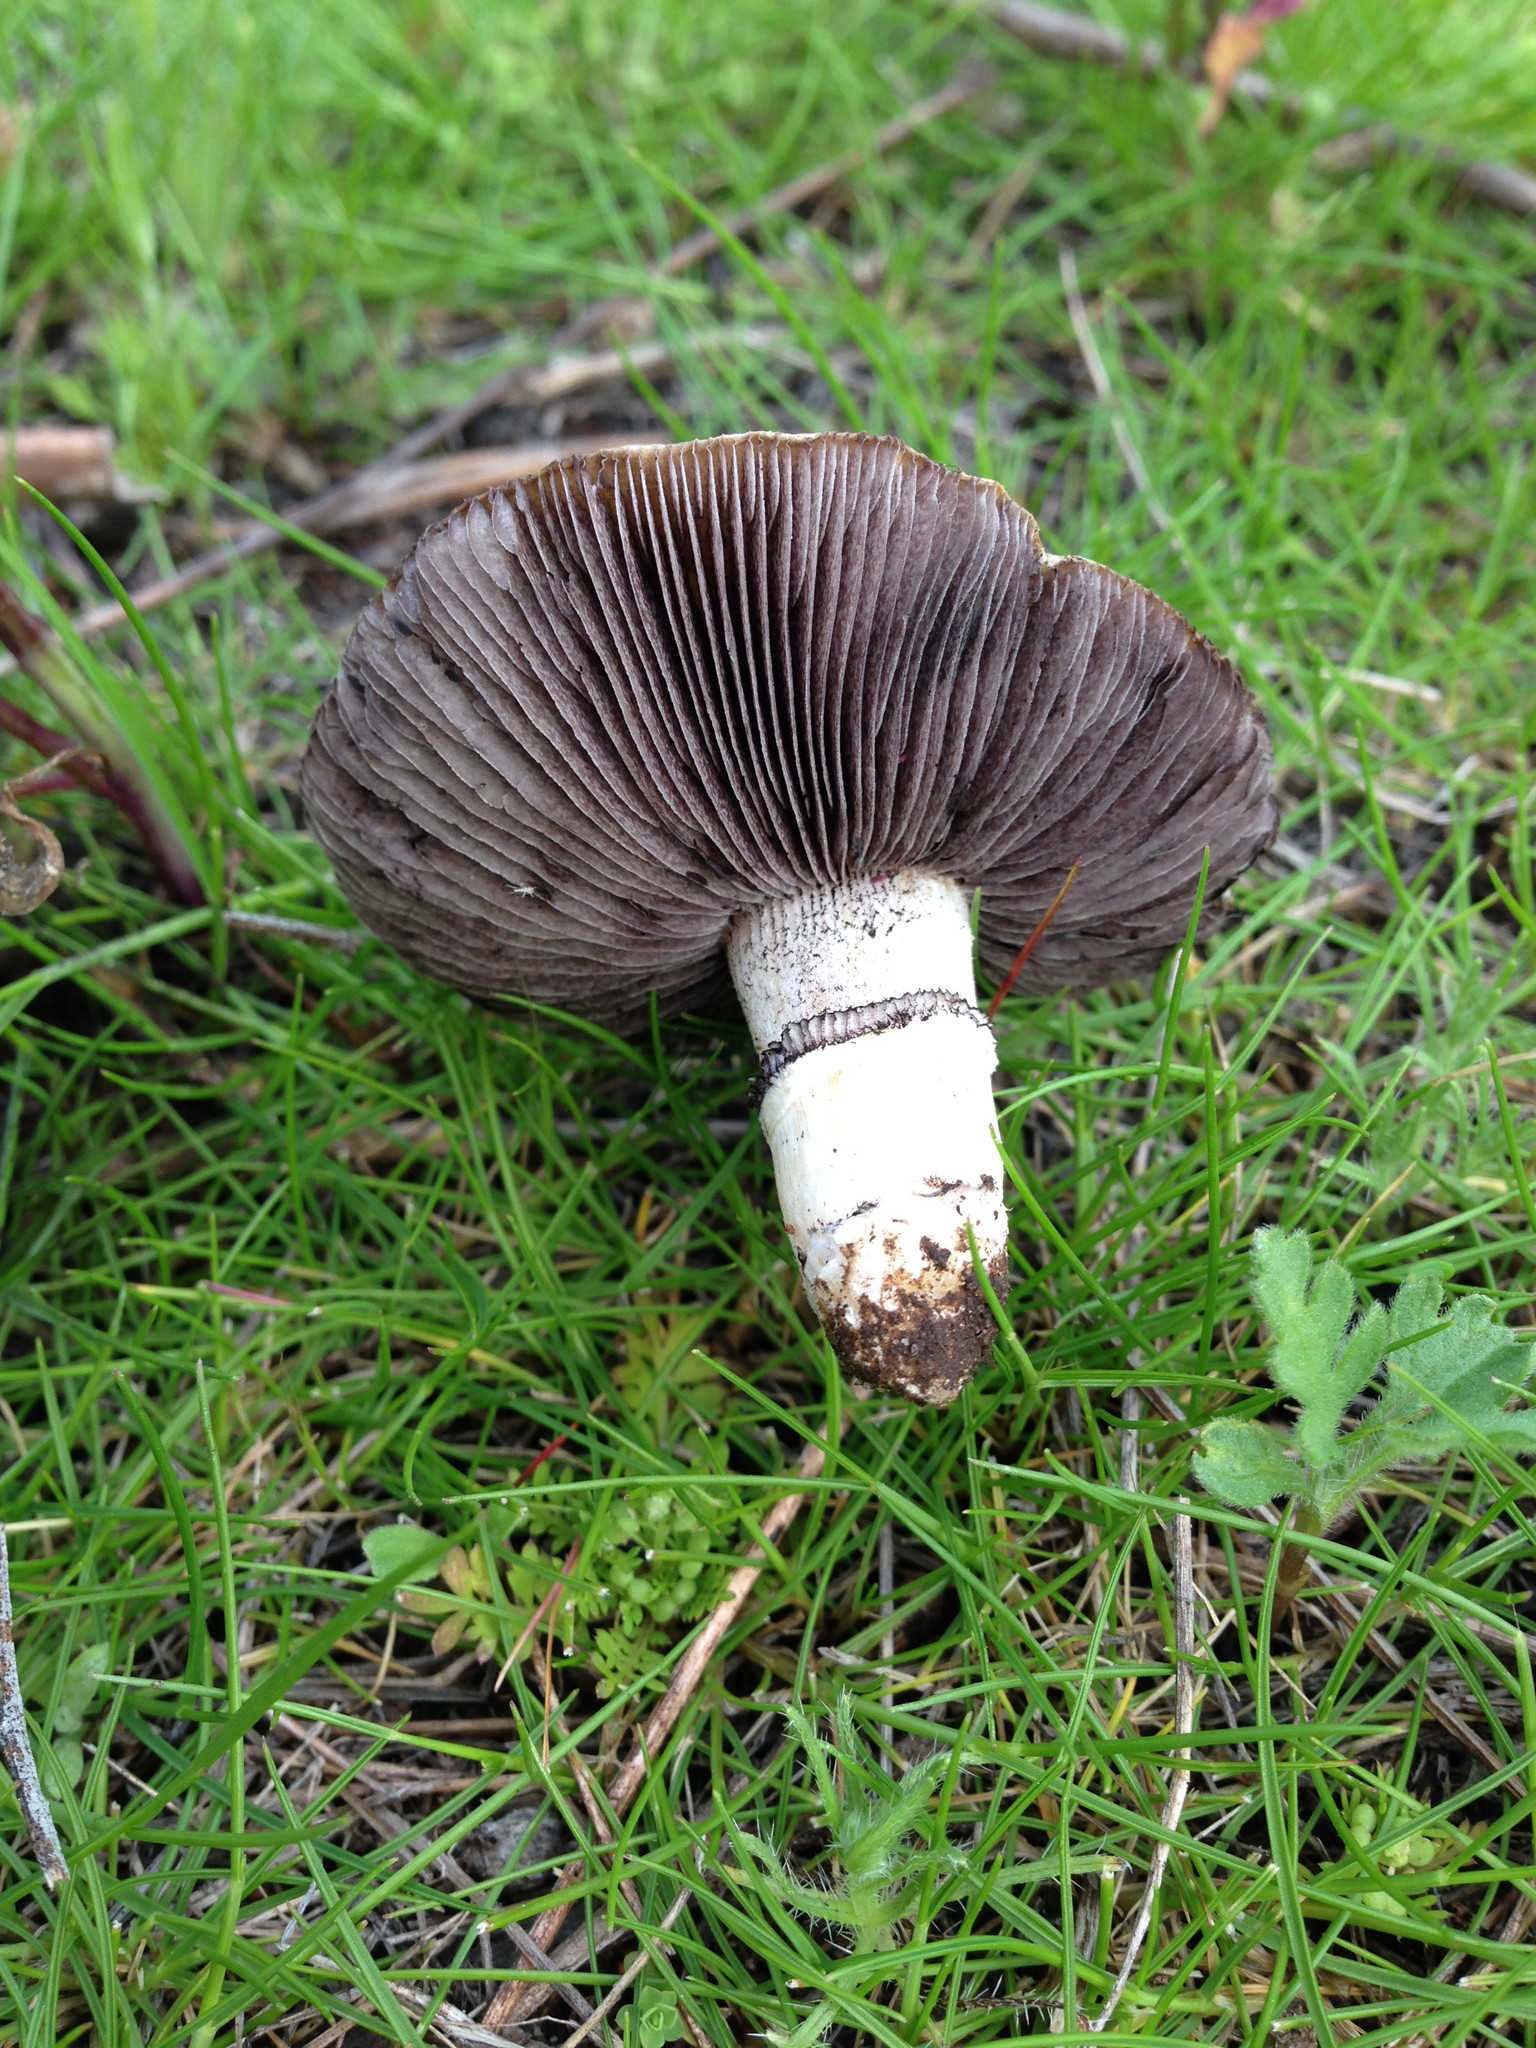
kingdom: Fungi
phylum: Basidiomycota
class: Agaricomycetes
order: Agaricales
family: Hymenogastraceae
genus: Psilocybe
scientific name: Psilocybe coronilla
